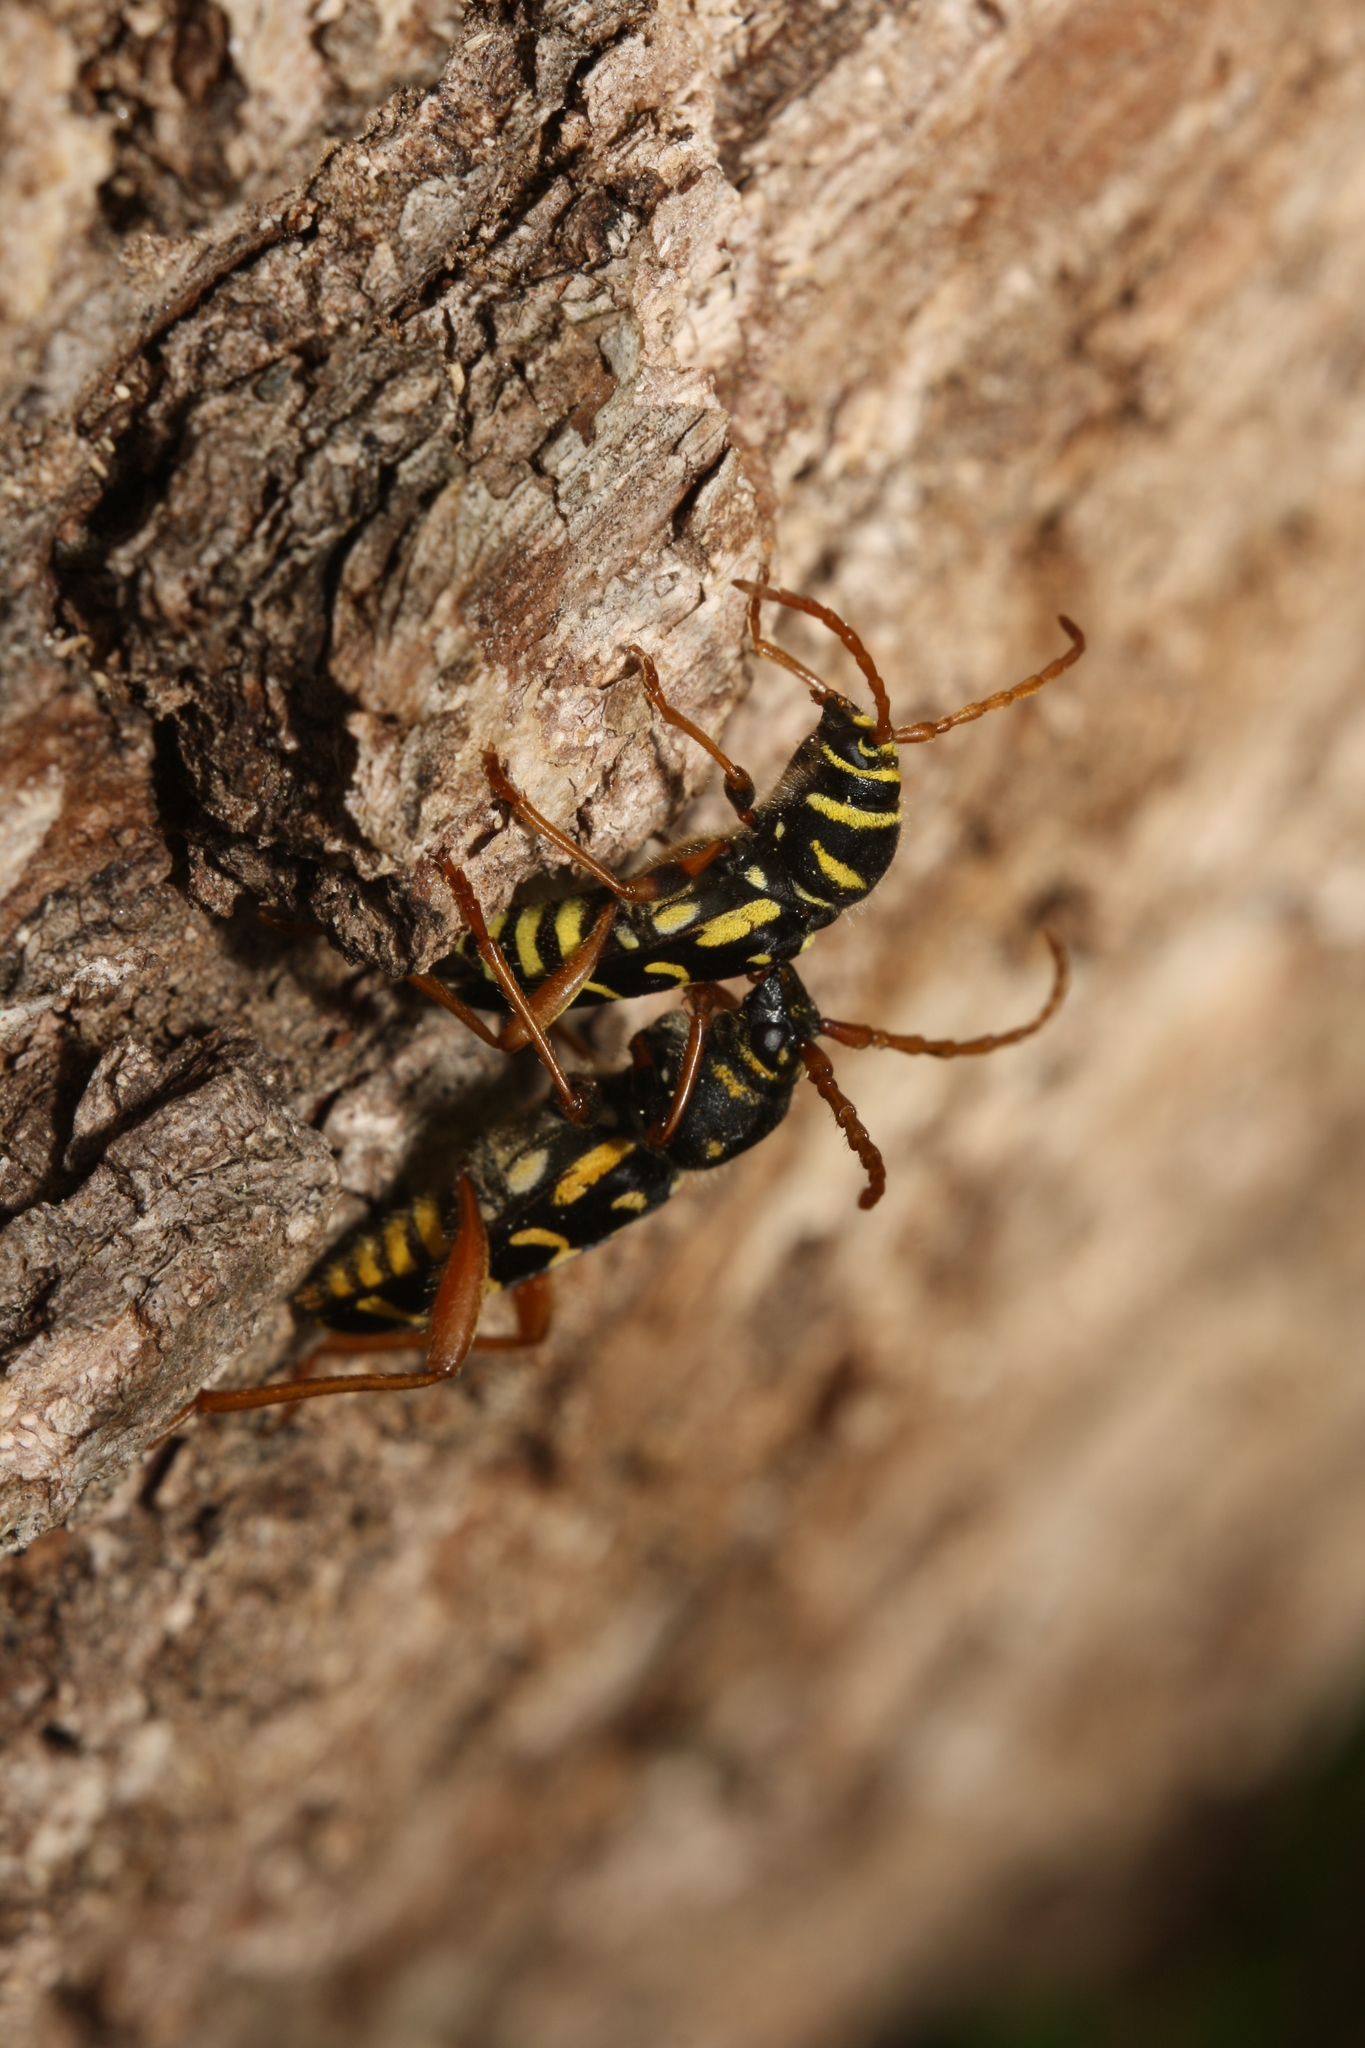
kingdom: Animalia
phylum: Arthropoda
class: Insecta
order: Coleoptera
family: Cerambycidae
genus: Plagionotus
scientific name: Plagionotus arcuatus
